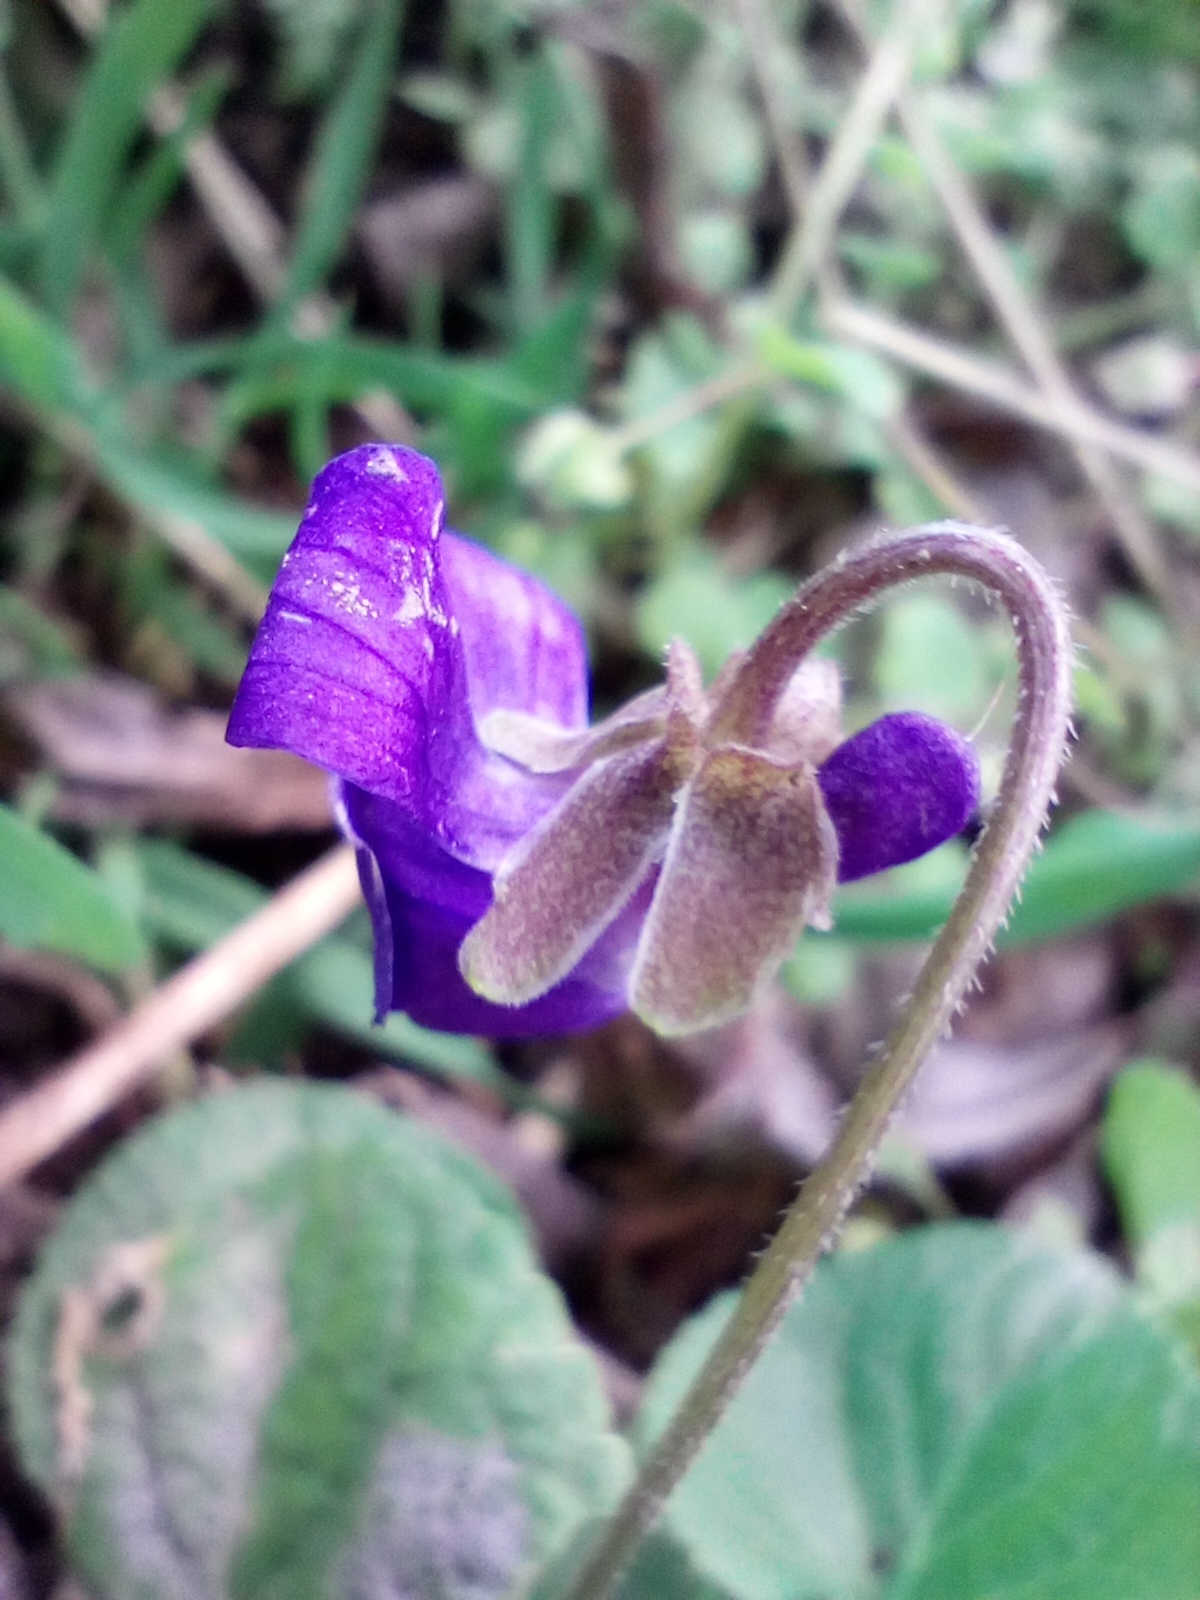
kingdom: Plantae
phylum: Tracheophyta
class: Magnoliopsida
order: Malpighiales
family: Violaceae
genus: Viola
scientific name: Viola odorata
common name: Sweet violet
